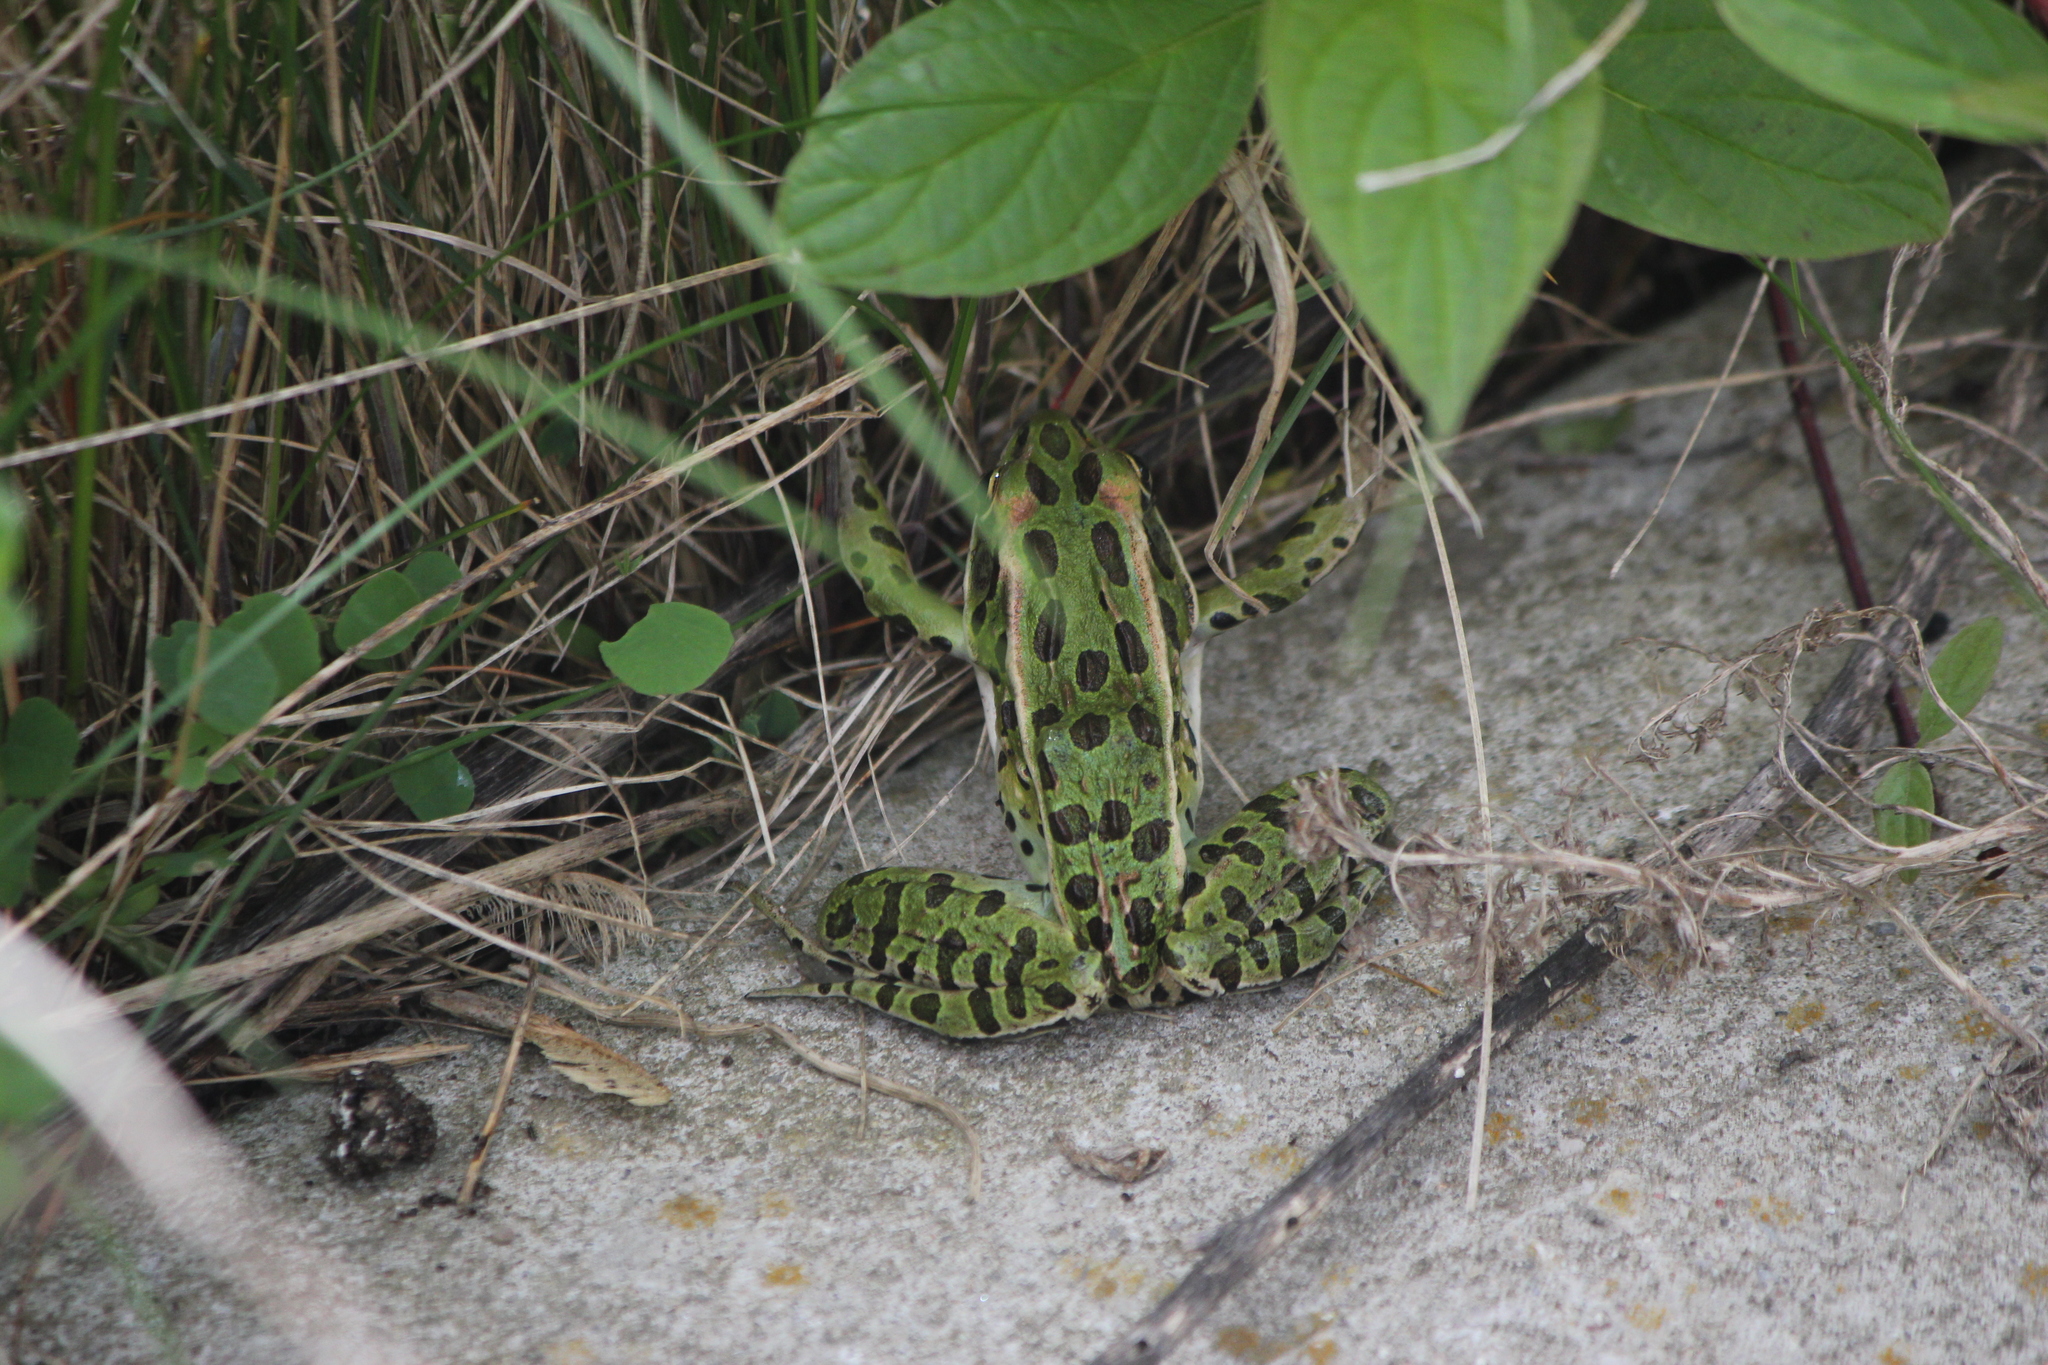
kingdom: Animalia
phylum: Chordata
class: Amphibia
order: Anura
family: Ranidae
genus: Lithobates
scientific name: Lithobates pipiens
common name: Northern leopard frog
